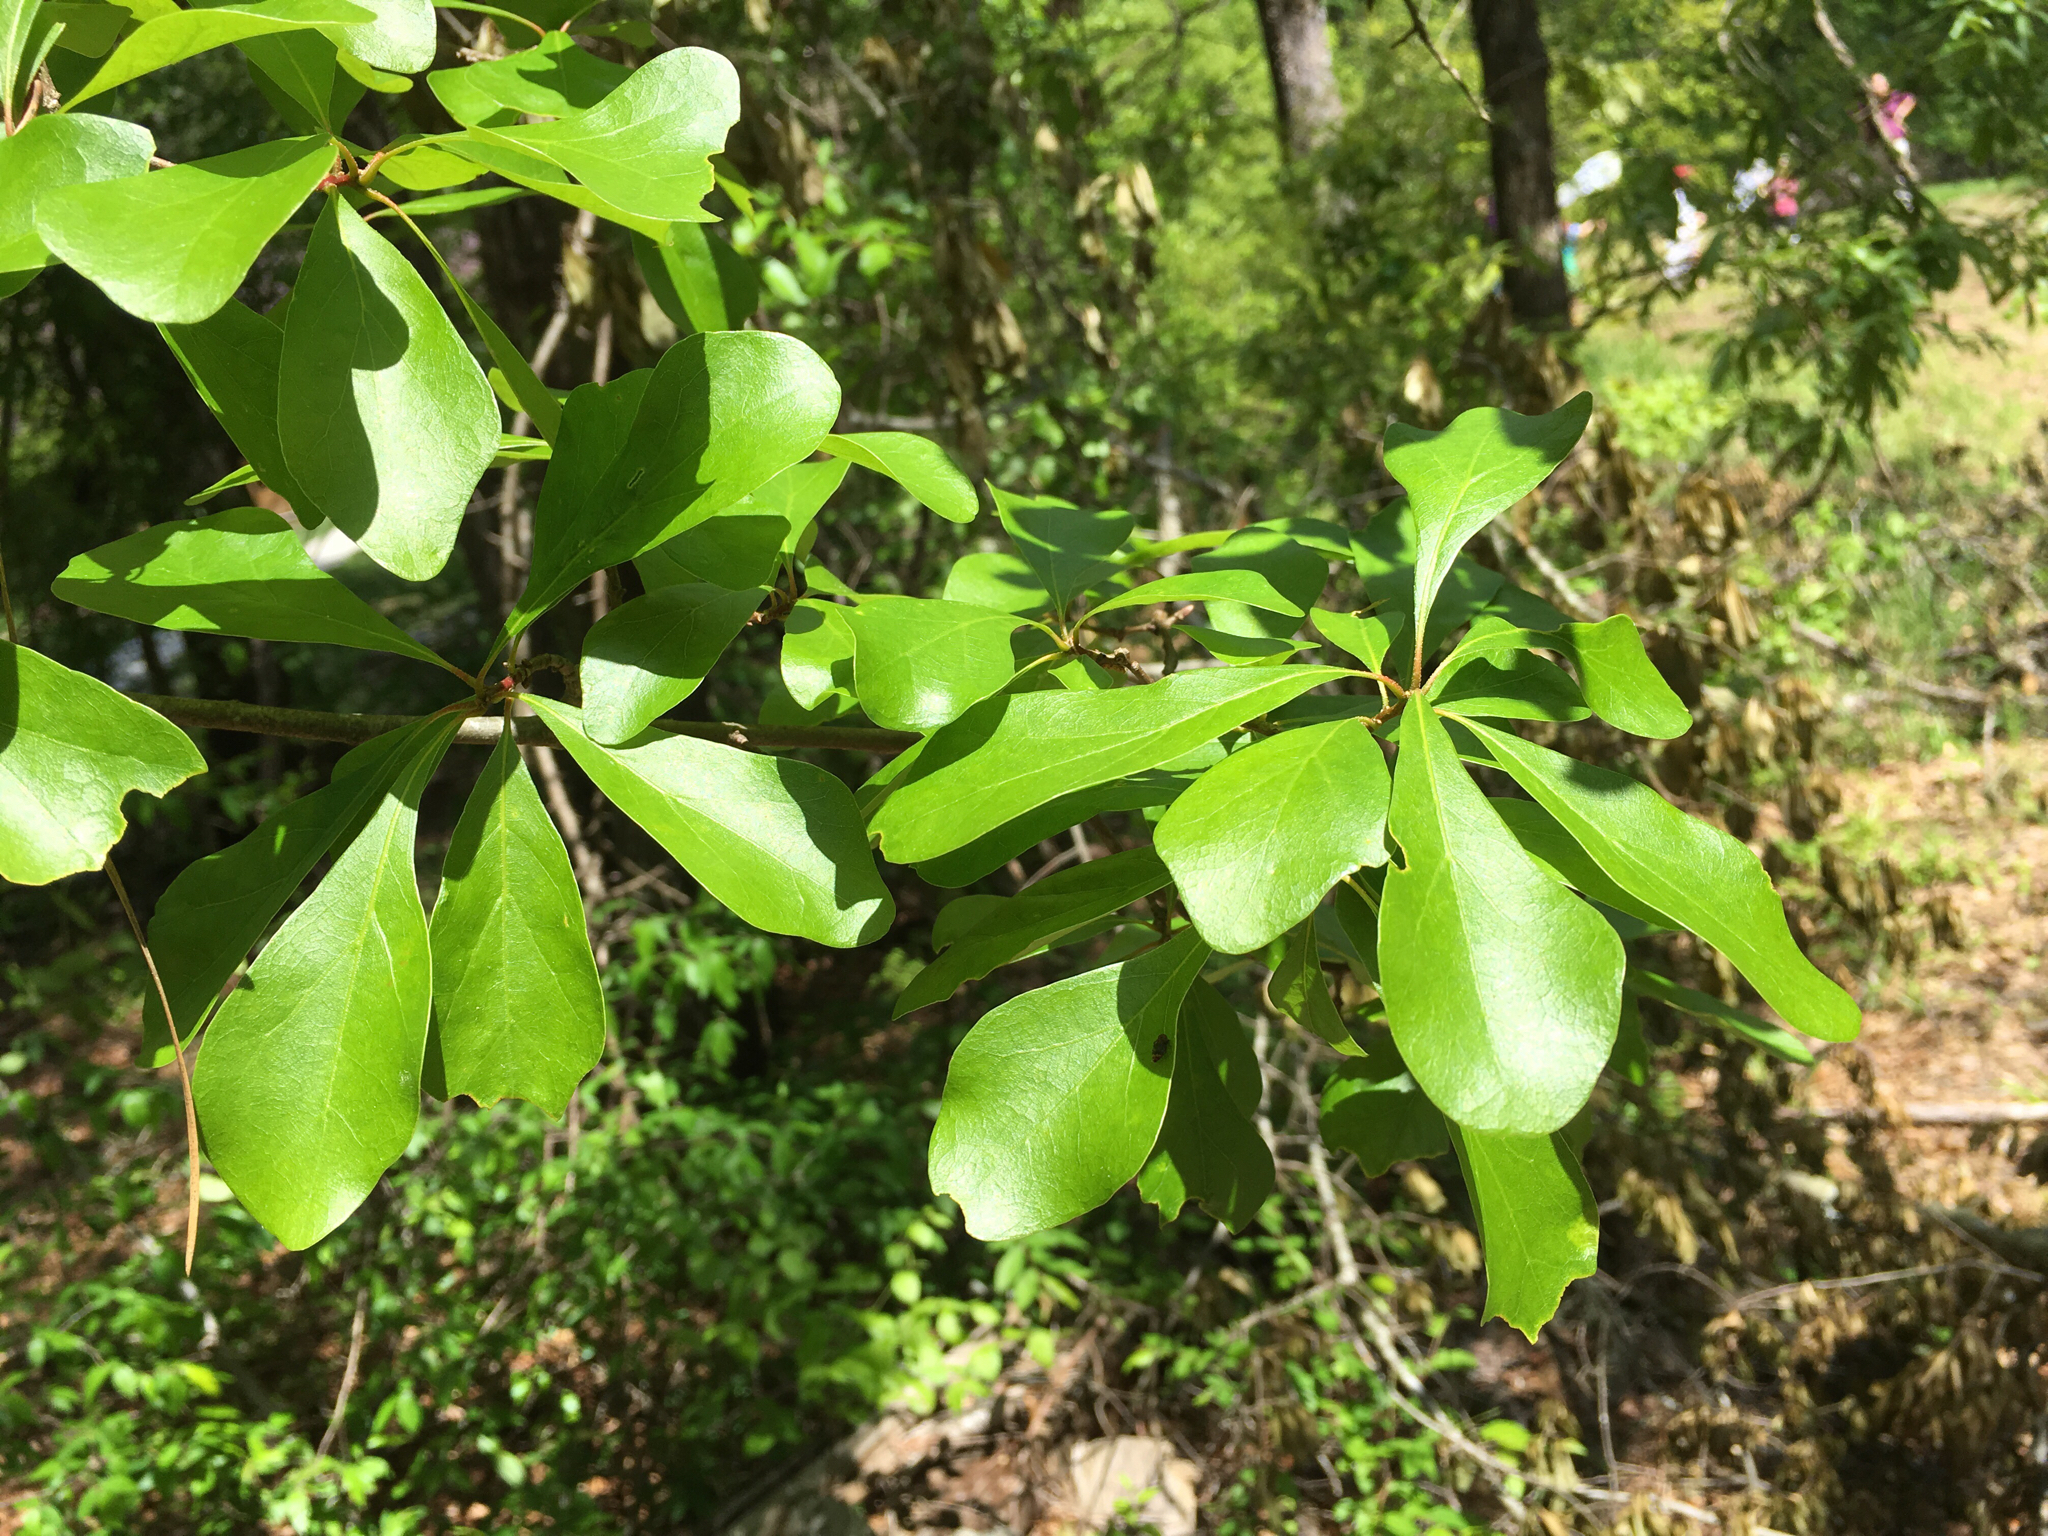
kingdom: Plantae
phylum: Tracheophyta
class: Magnoliopsida
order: Fagales
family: Fagaceae
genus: Quercus
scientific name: Quercus nigra
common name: Water oak
